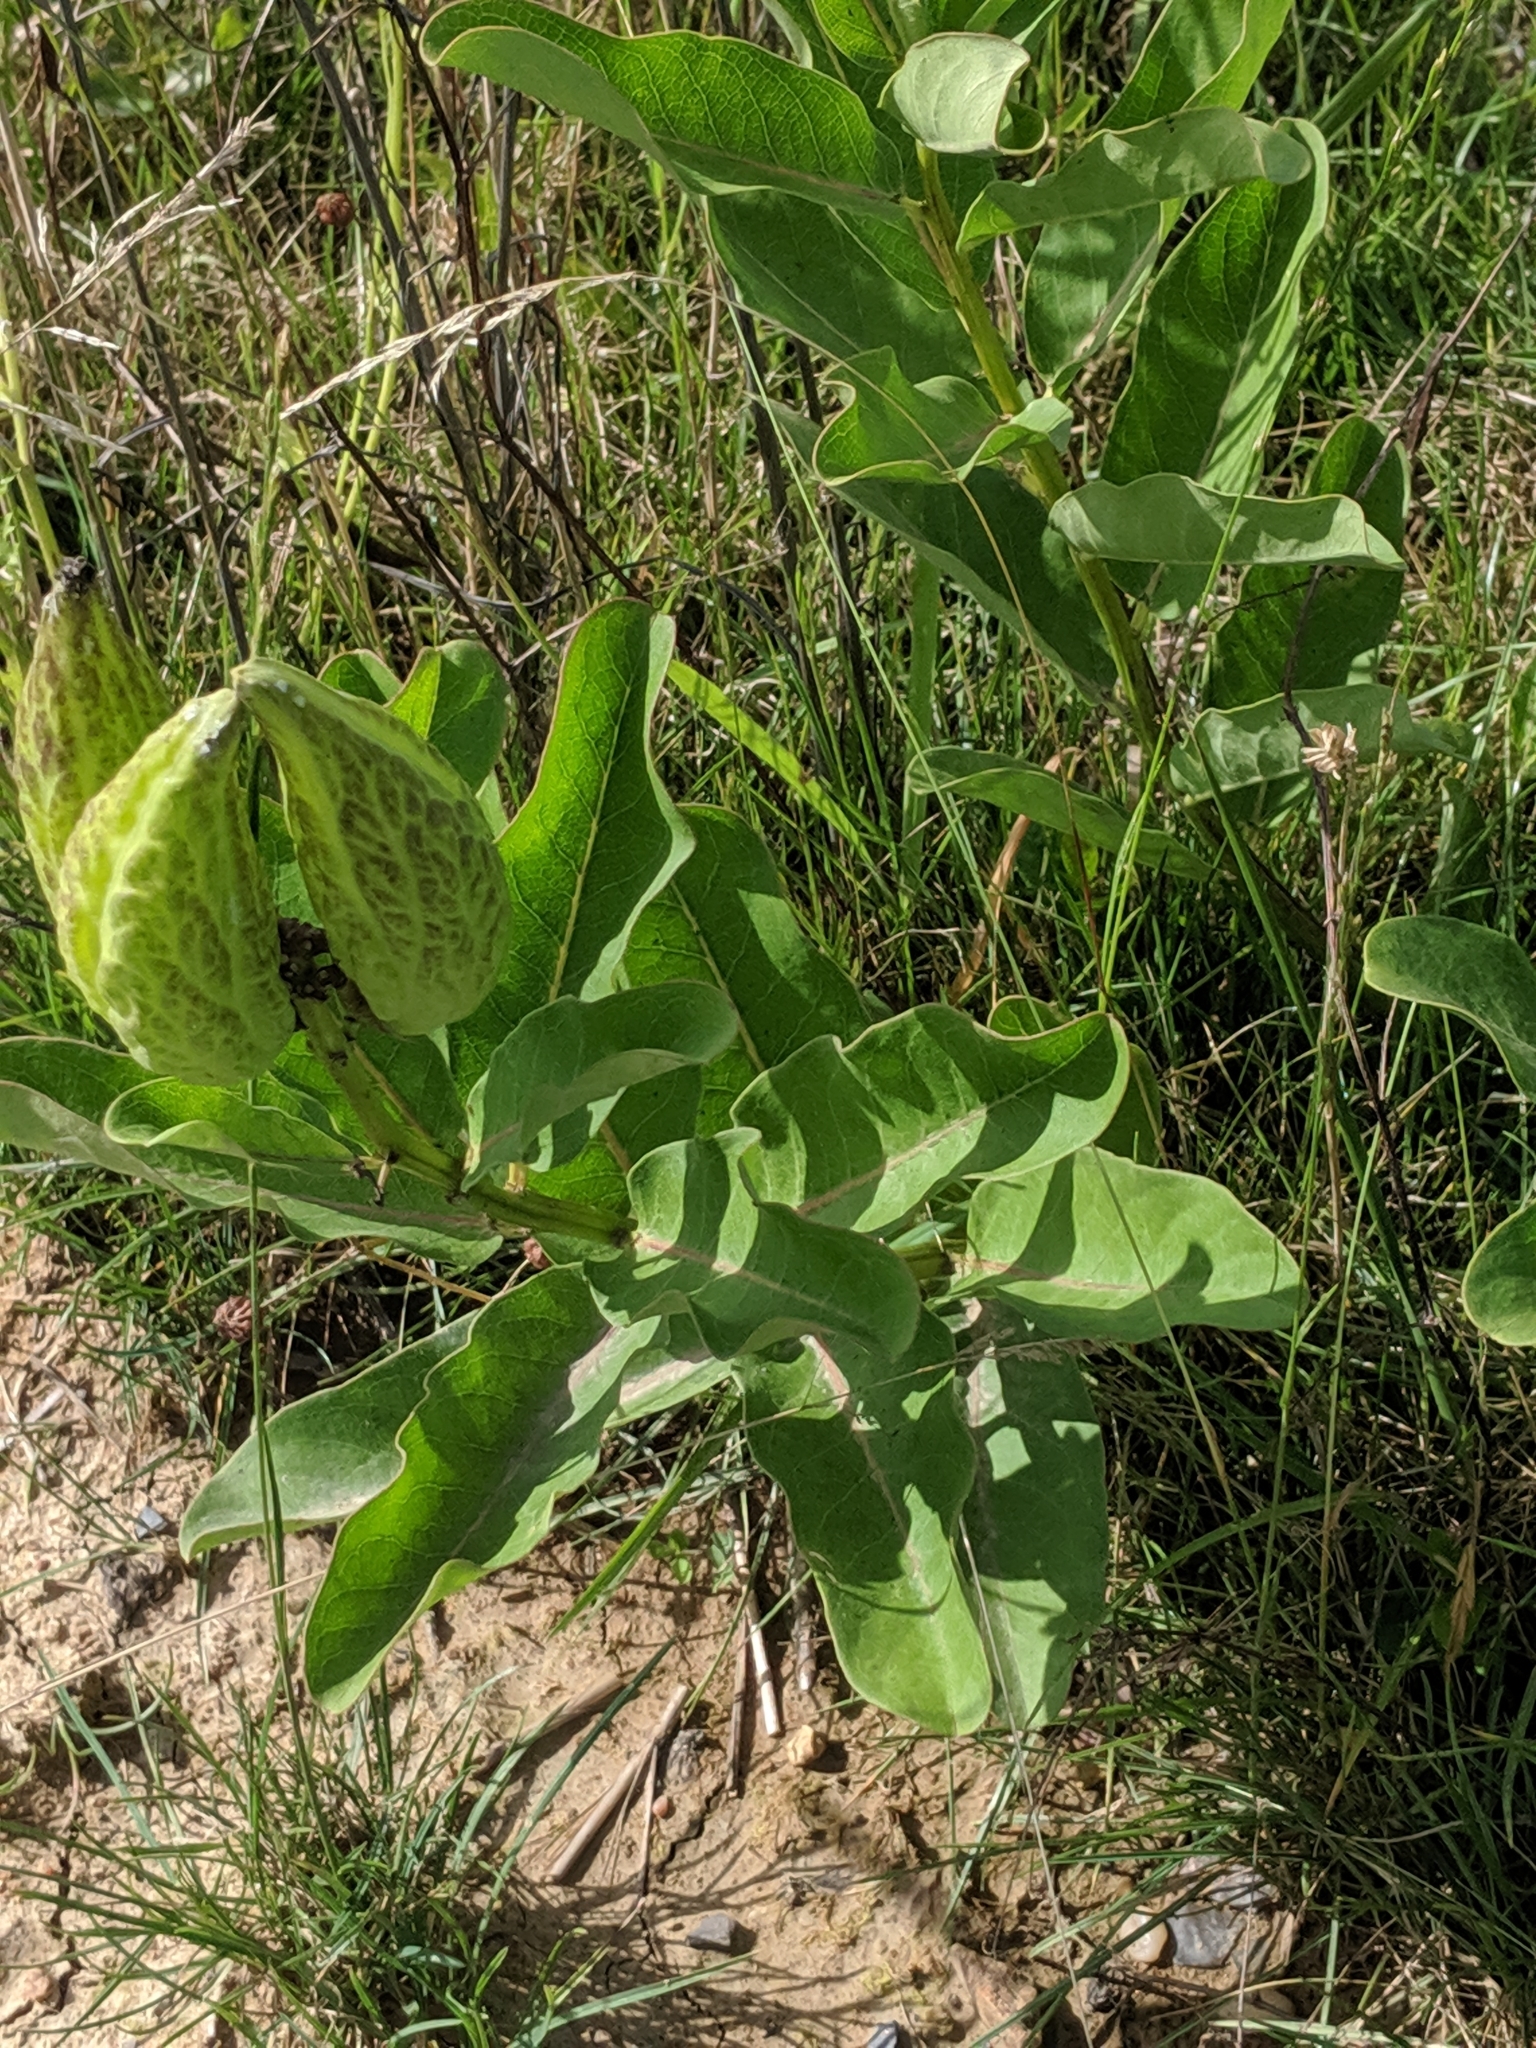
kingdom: Plantae
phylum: Tracheophyta
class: Magnoliopsida
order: Gentianales
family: Apocynaceae
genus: Asclepias
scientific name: Asclepias viridis
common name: Antelope-horns
